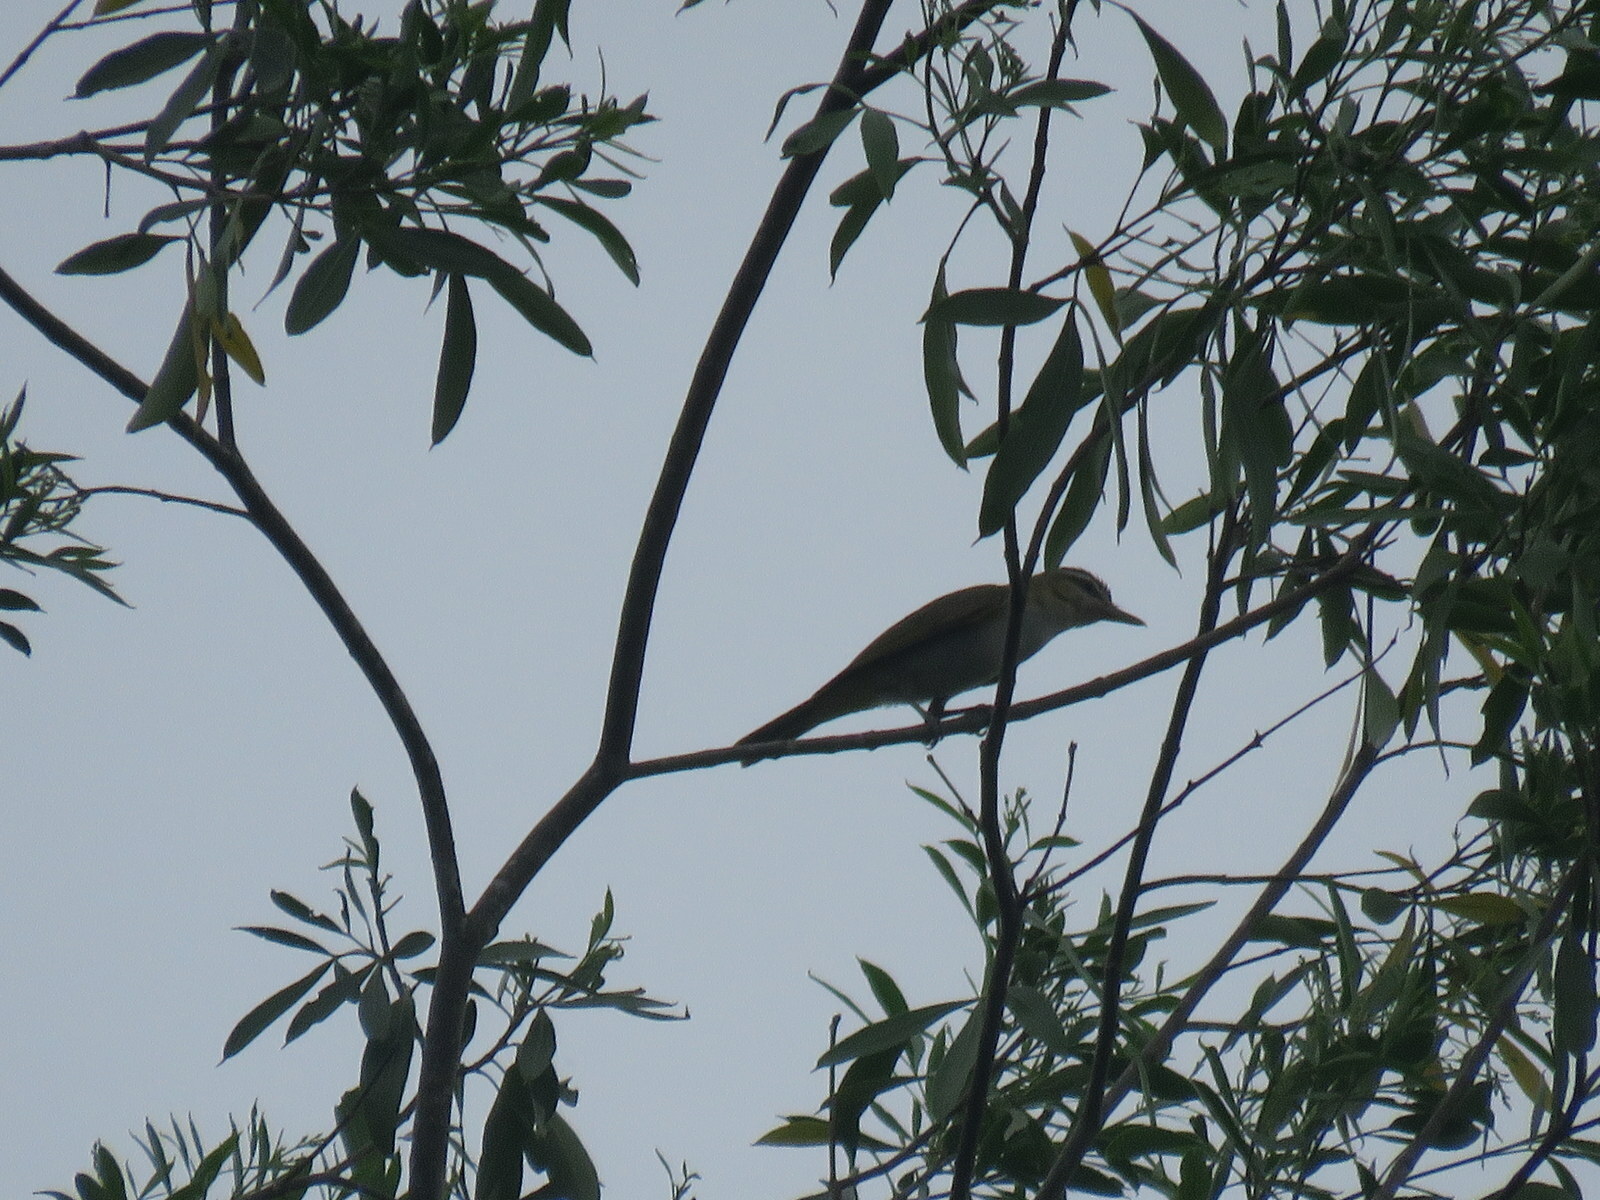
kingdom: Animalia
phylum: Chordata
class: Aves
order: Passeriformes
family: Vireonidae
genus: Vireo
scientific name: Vireo olivaceus
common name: Red-eyed vireo
